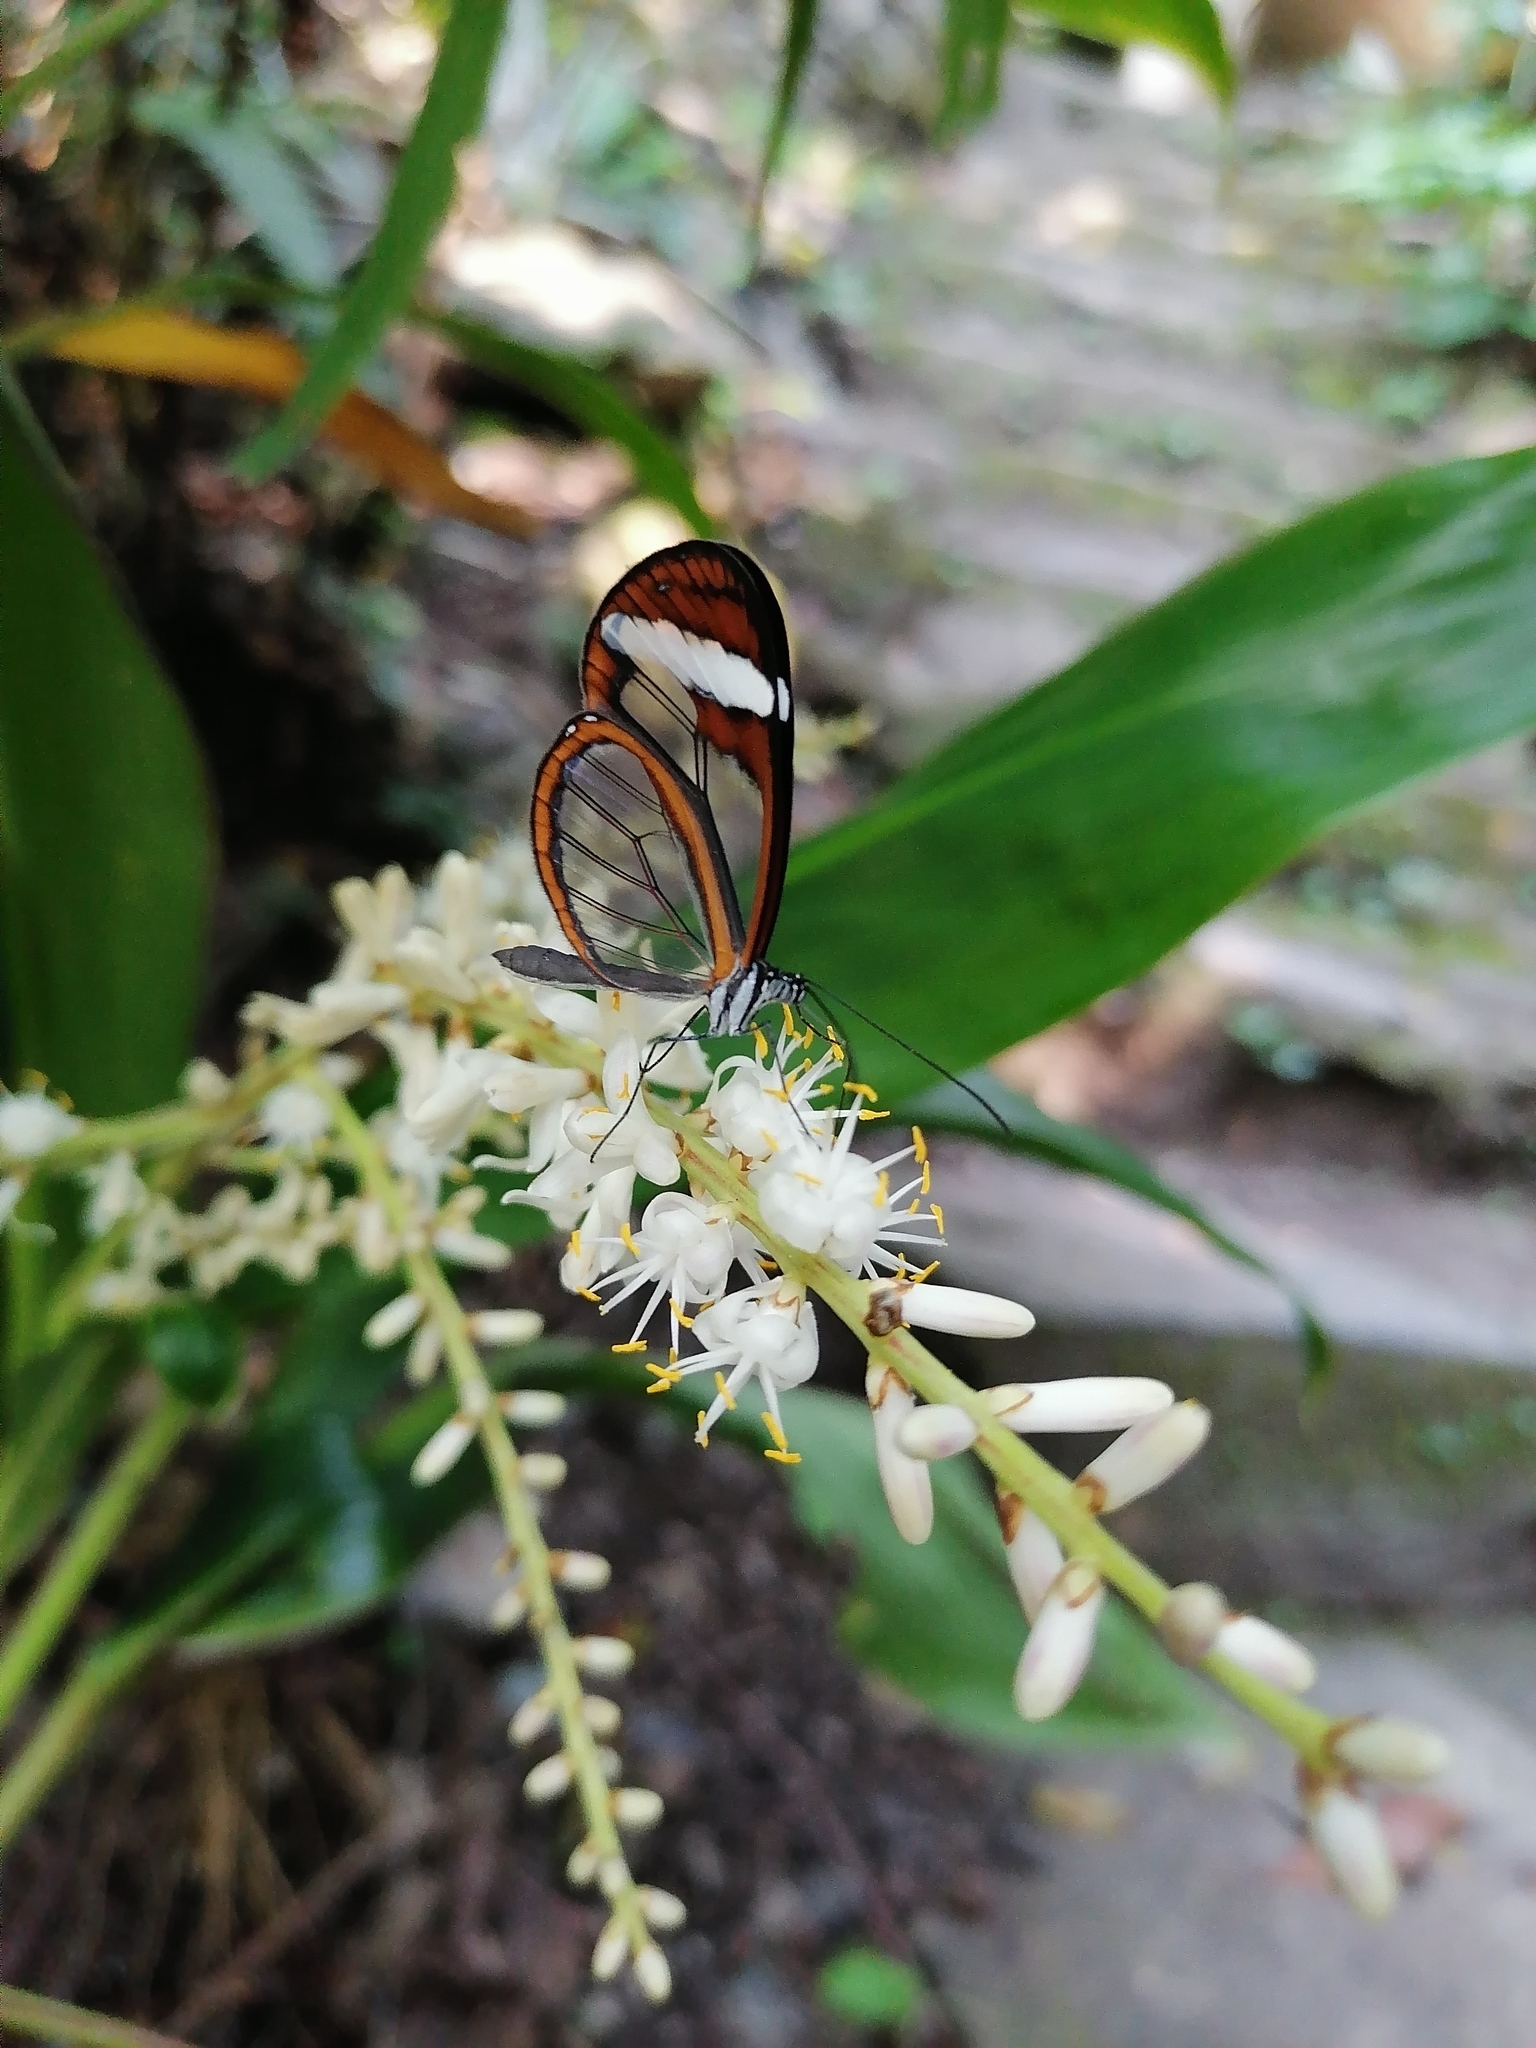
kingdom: Animalia
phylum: Arthropoda
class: Insecta
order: Lepidoptera
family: Nymphalidae
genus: Oleria
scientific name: Oleria paula
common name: Paula's clearwing
